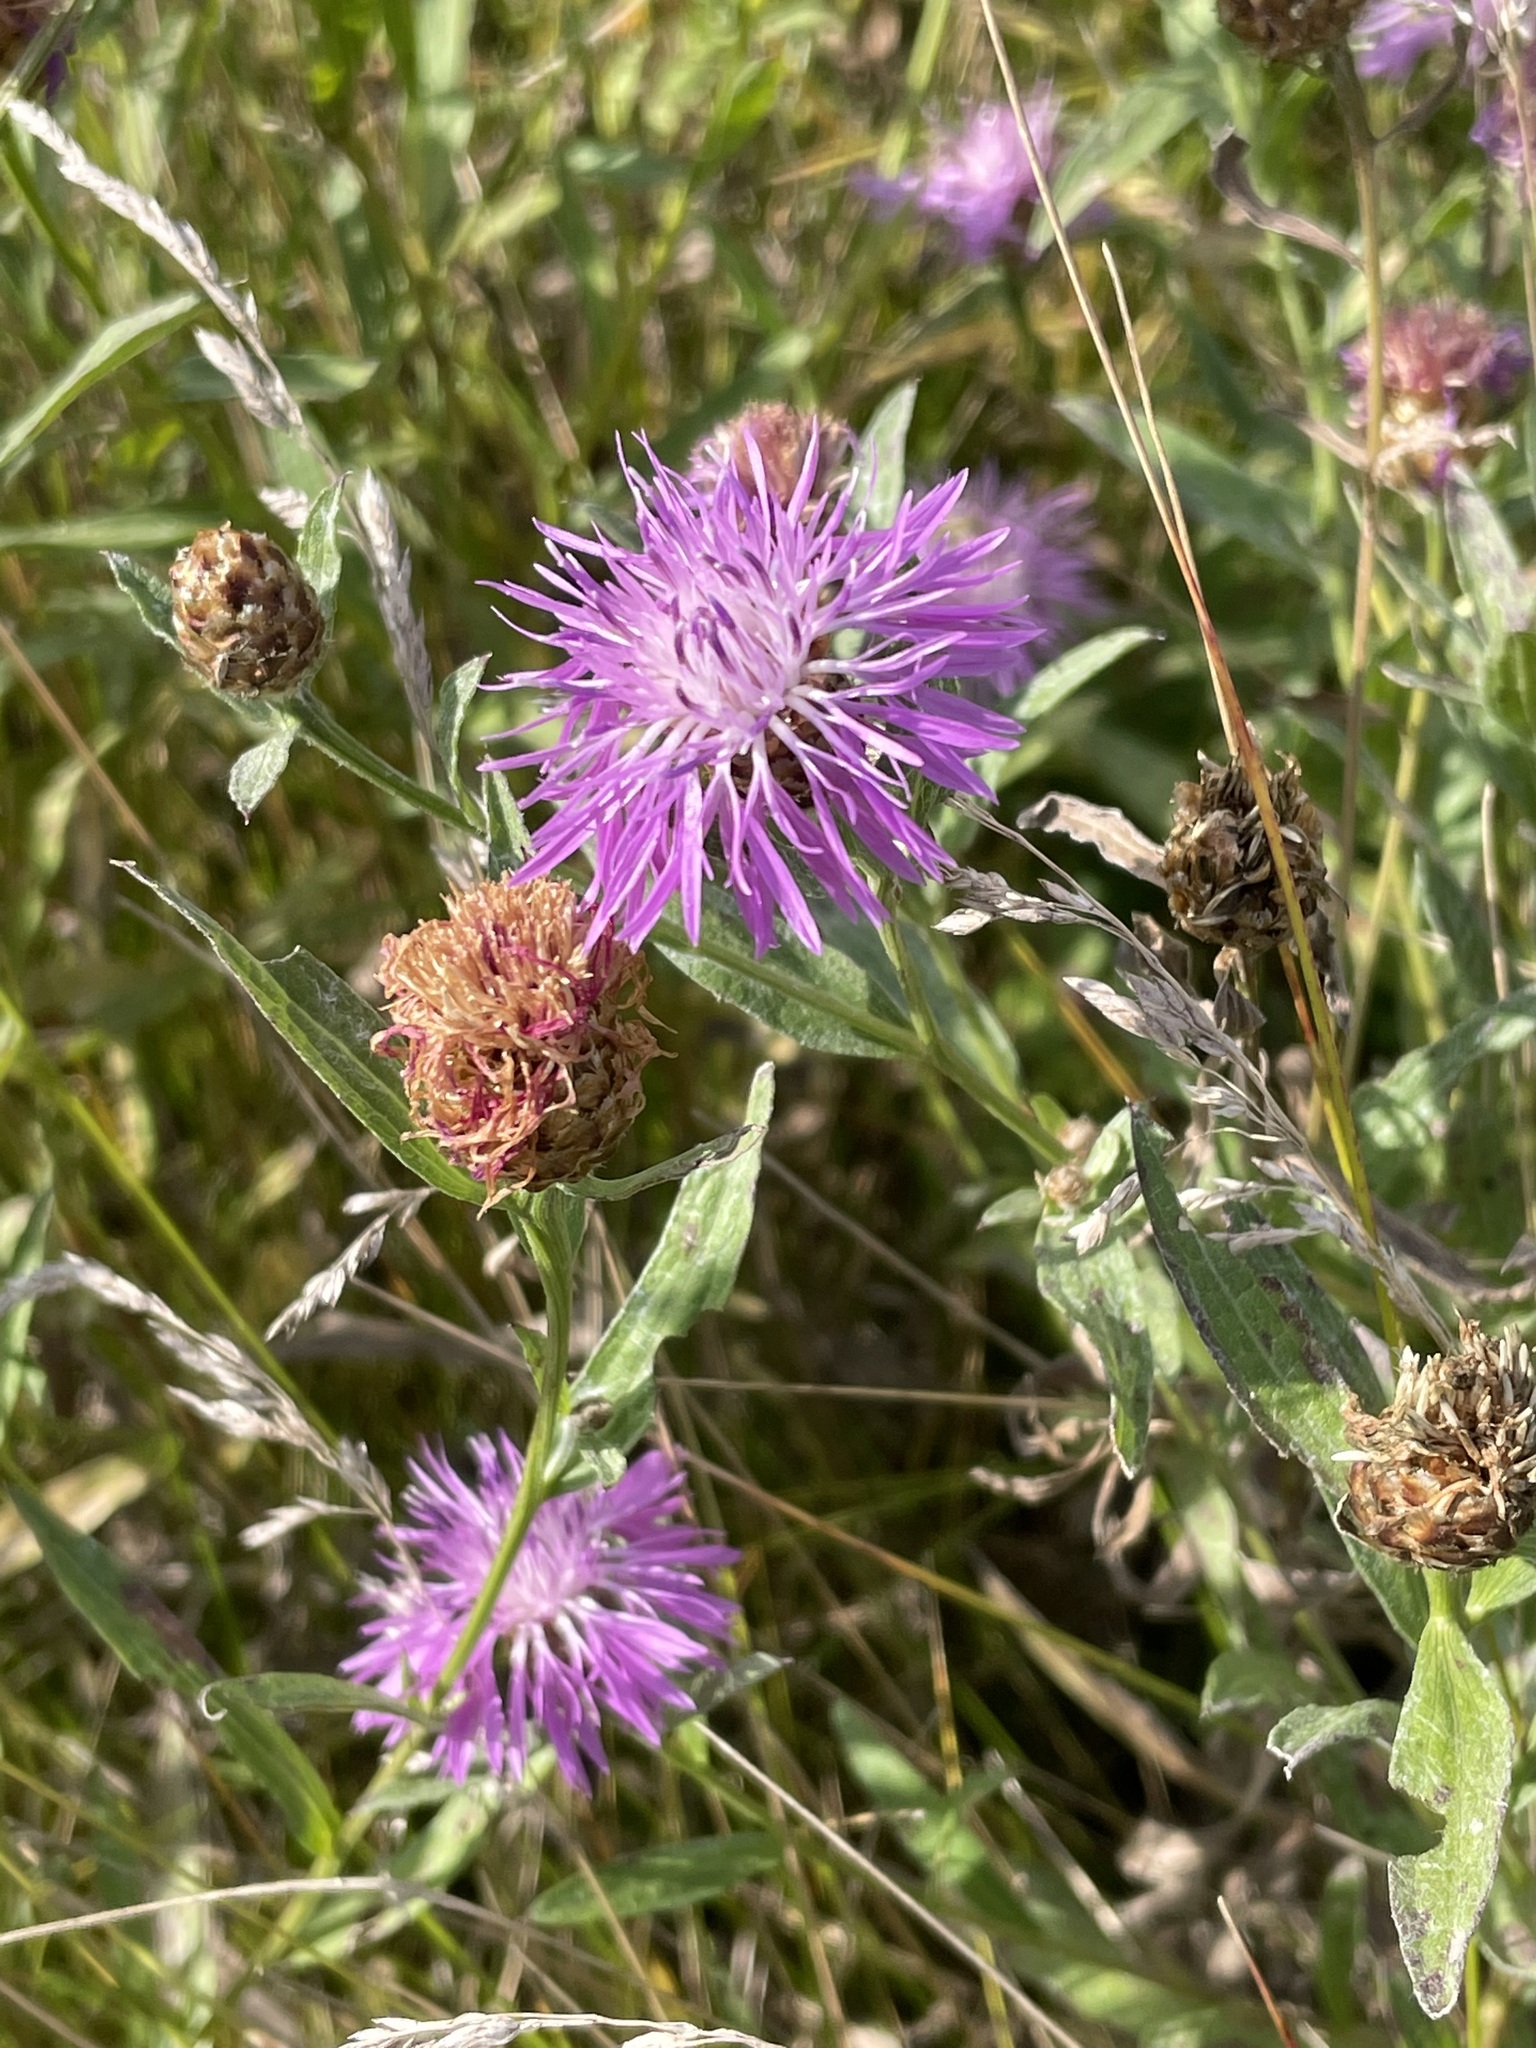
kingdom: Plantae
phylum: Tracheophyta
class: Magnoliopsida
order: Asterales
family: Asteraceae
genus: Centaurea
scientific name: Centaurea jacea
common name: Brown knapweed
